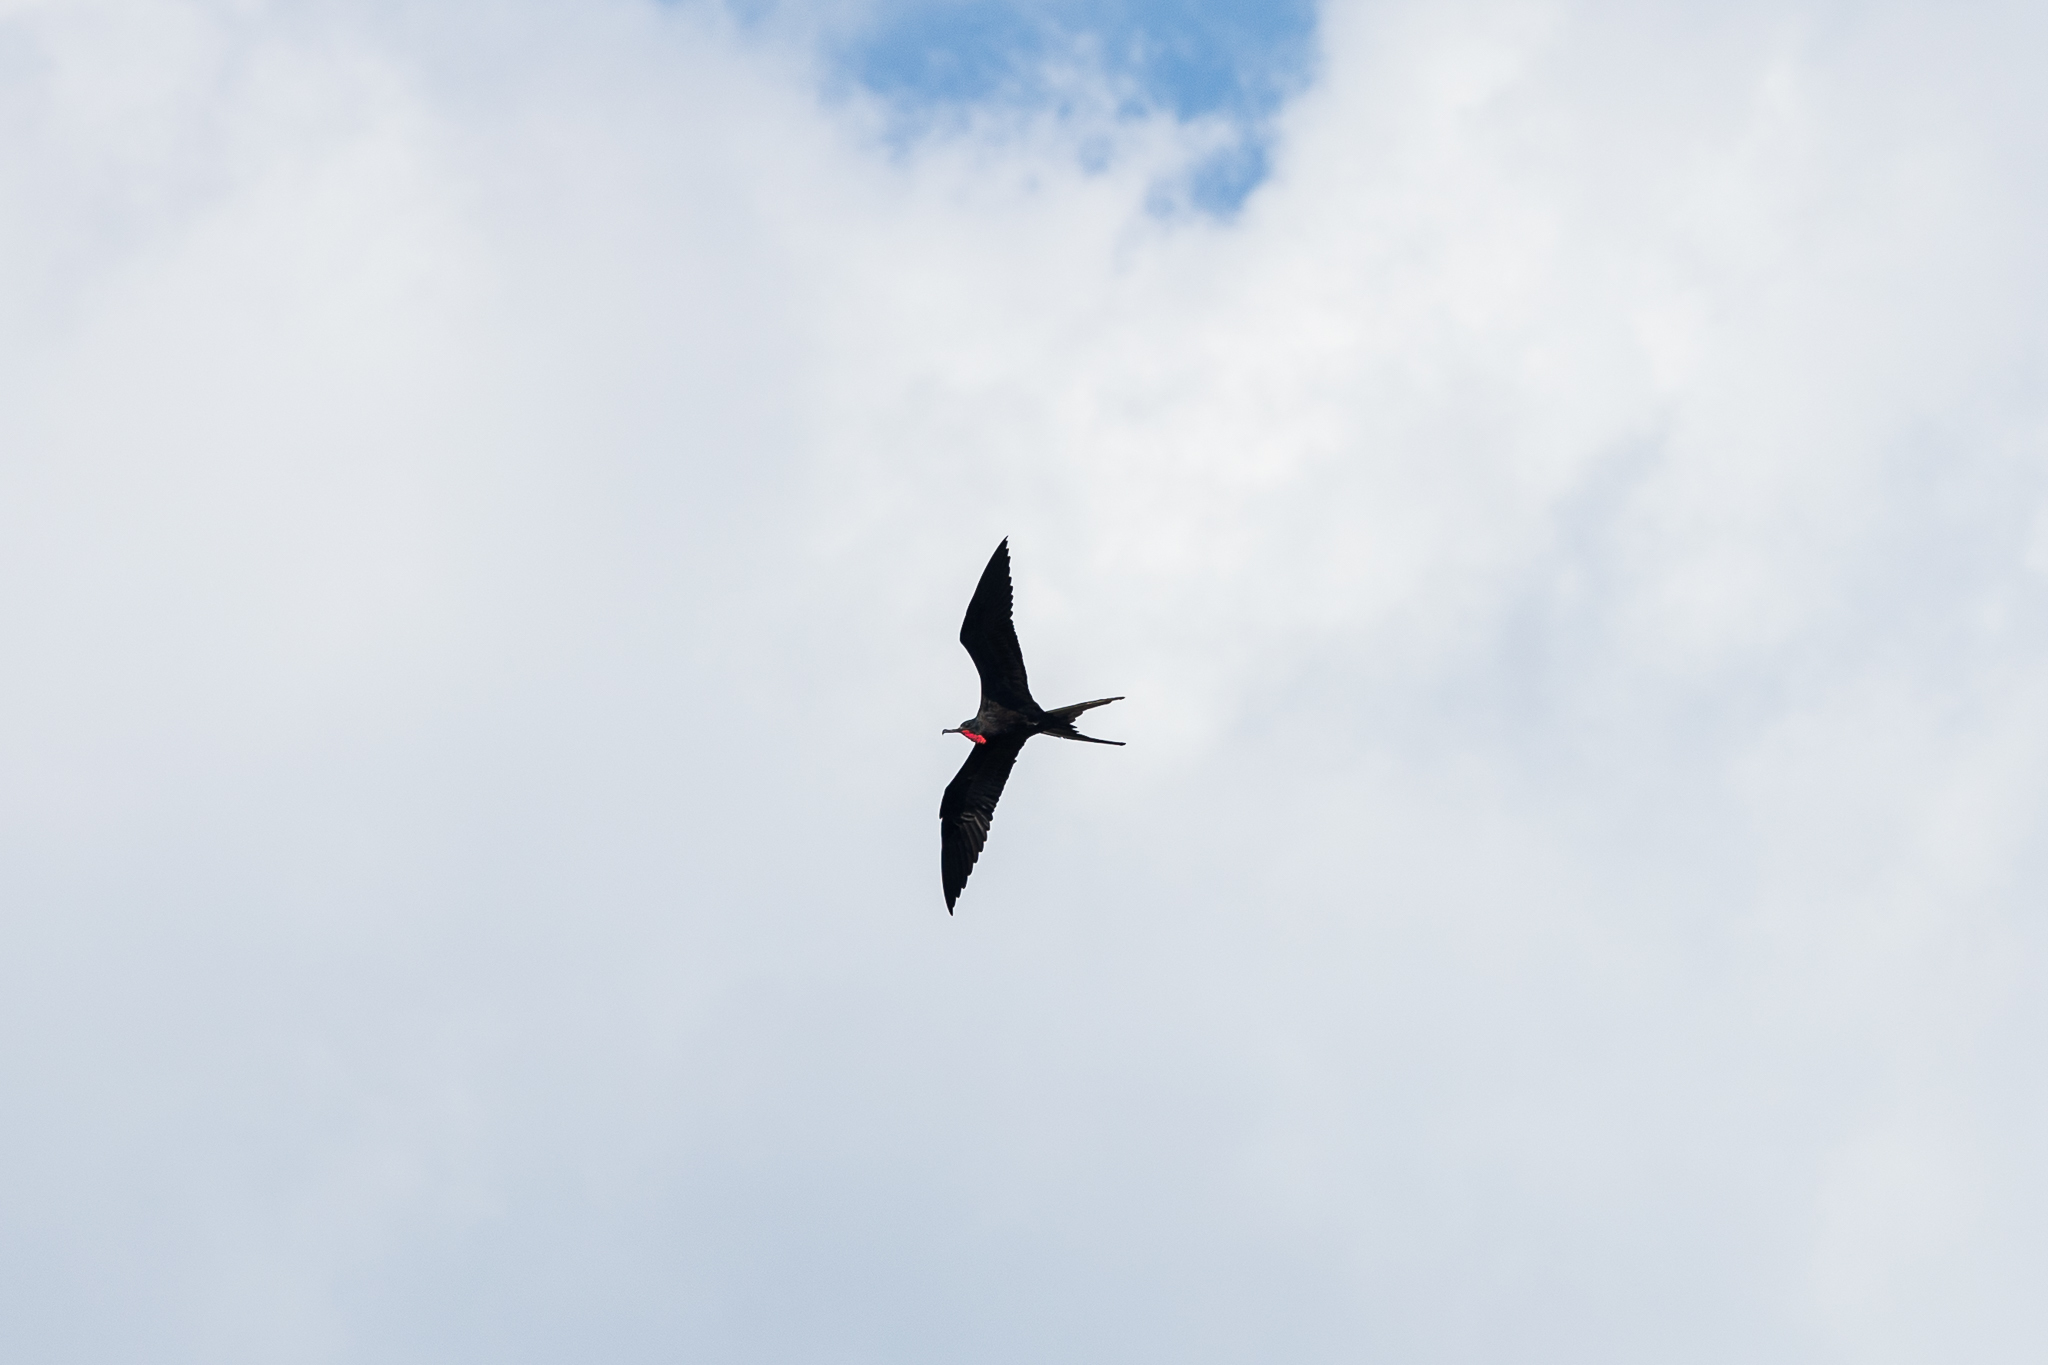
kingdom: Animalia
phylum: Chordata
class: Aves
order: Suliformes
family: Fregatidae
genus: Fregata
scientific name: Fregata magnificens
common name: Magnificent frigatebird
